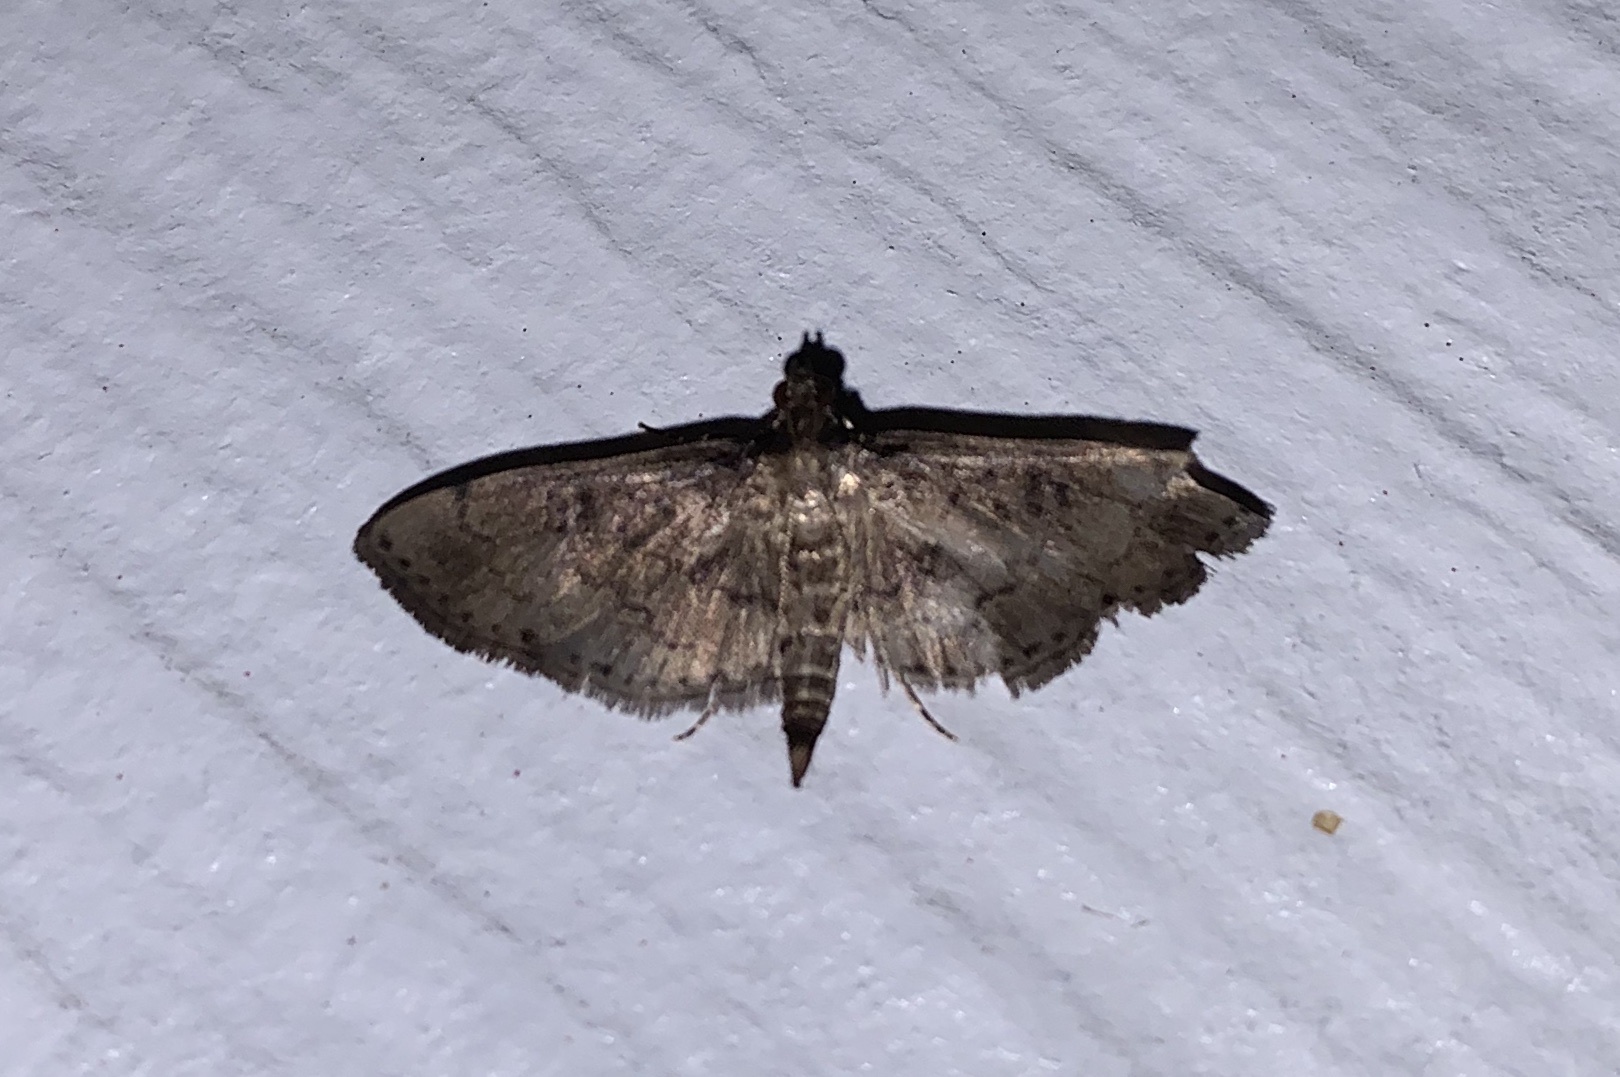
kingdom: Animalia
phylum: Arthropoda
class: Insecta
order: Lepidoptera
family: Crambidae
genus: Nacoleia
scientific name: Nacoleia charesalis
